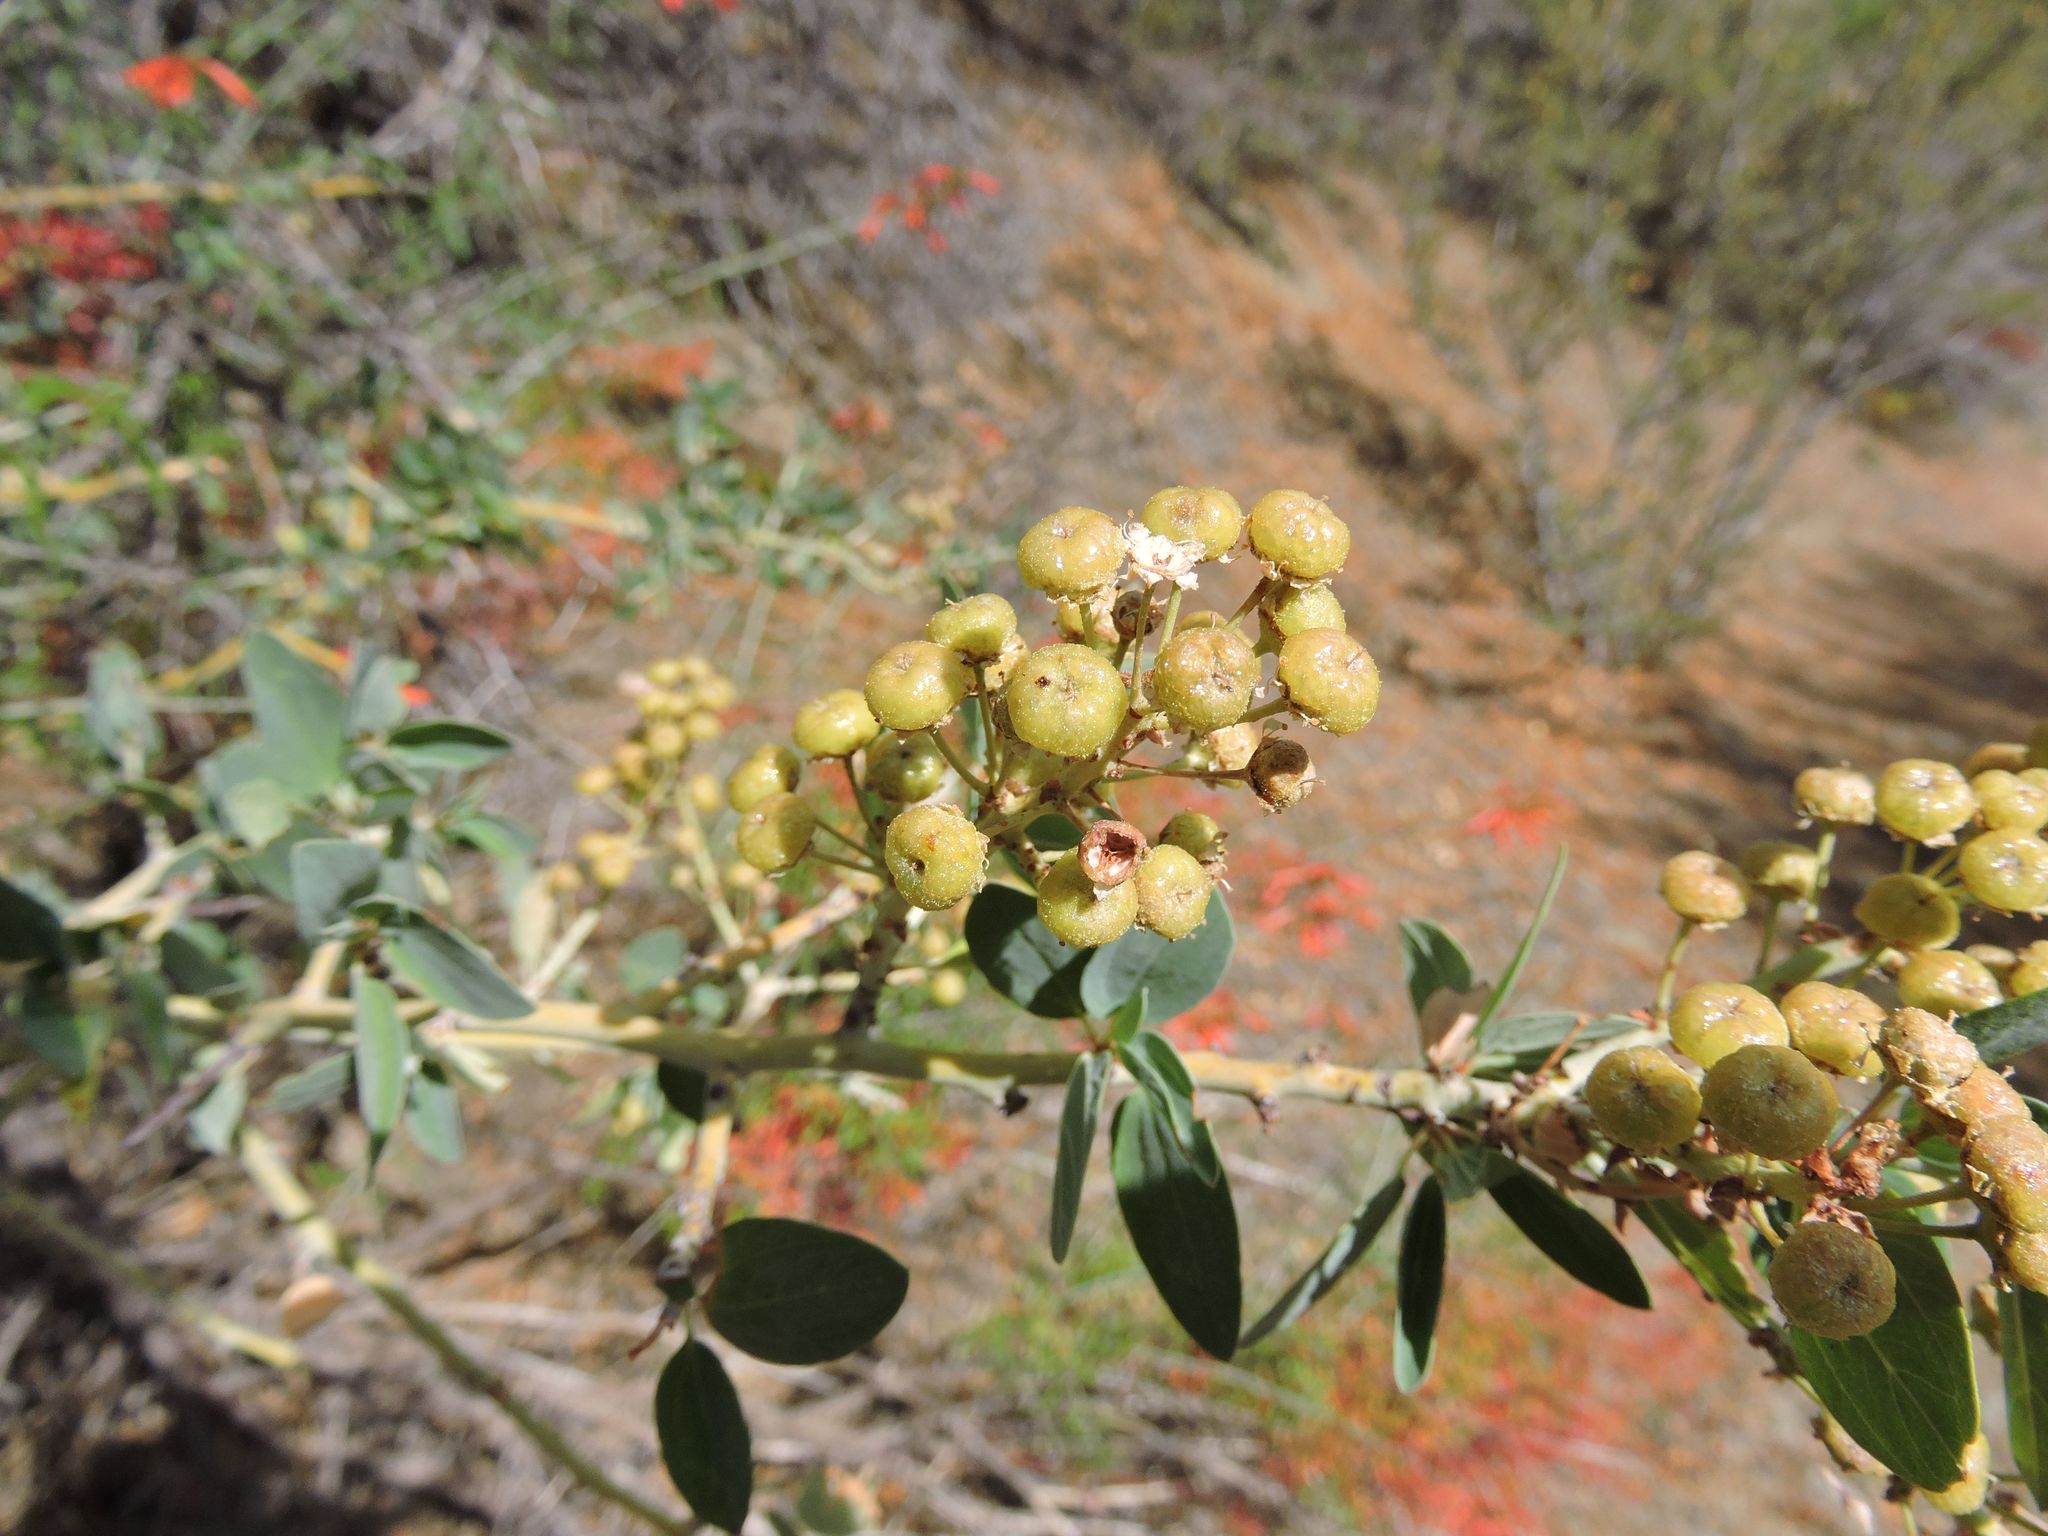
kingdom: Plantae
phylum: Tracheophyta
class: Magnoliopsida
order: Rosales
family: Rhamnaceae
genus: Ceanothus
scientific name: Ceanothus leucodermis
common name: Chaparral whitethorn
